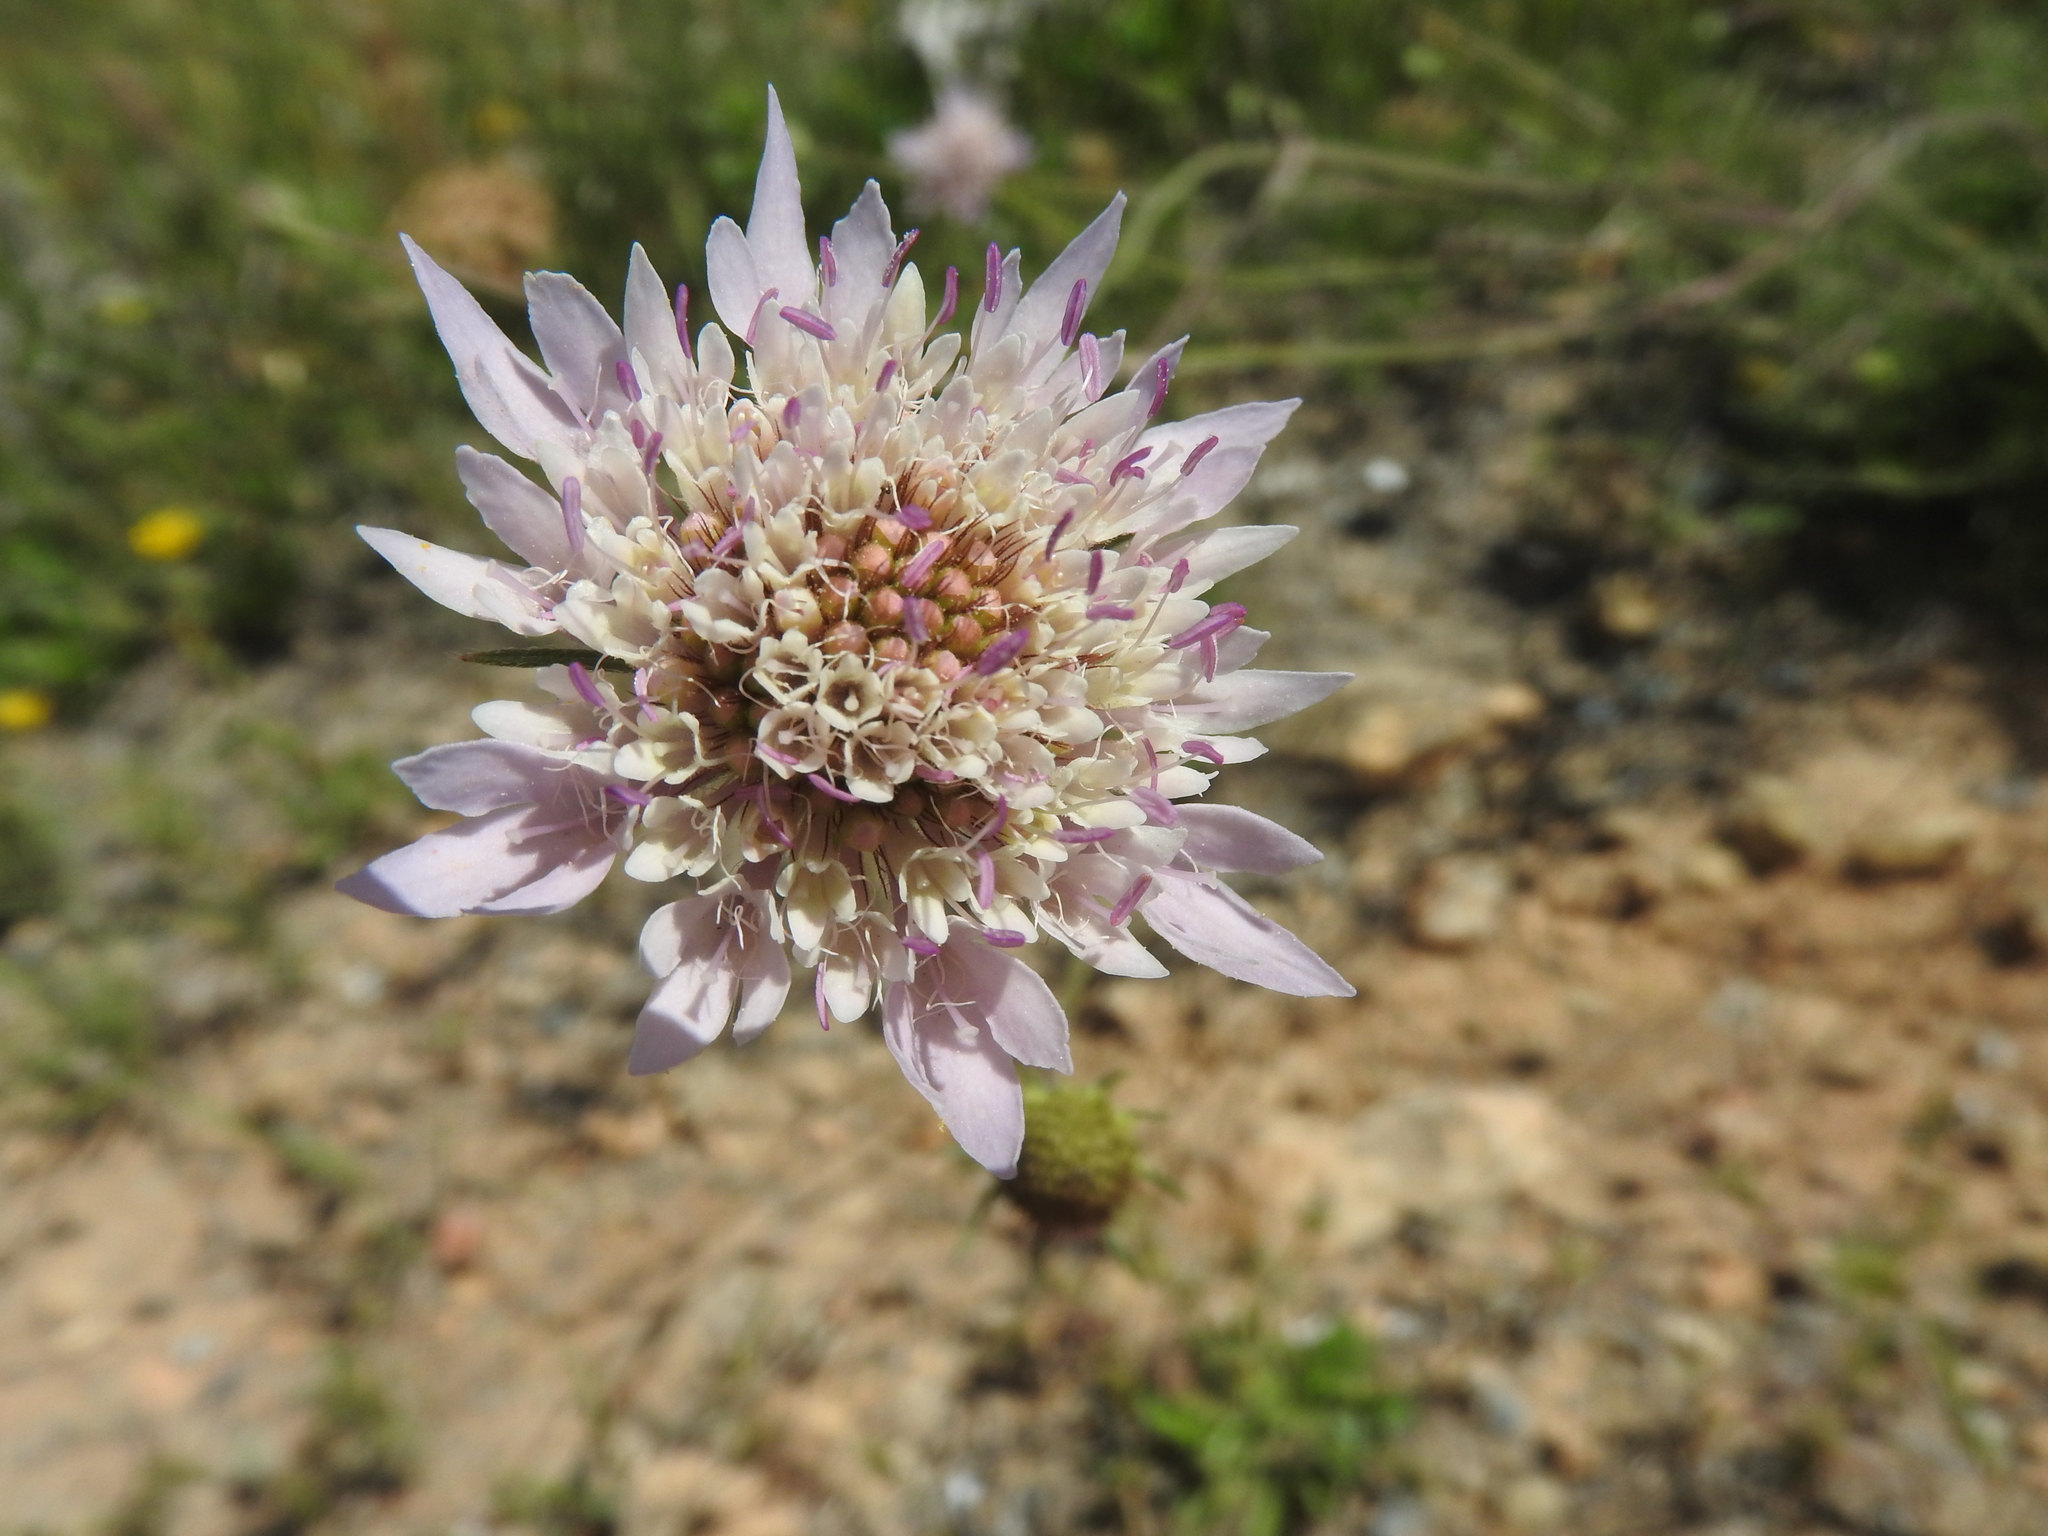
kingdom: Plantae
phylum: Tracheophyta
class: Magnoliopsida
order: Dipsacales
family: Caprifoliaceae
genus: Sixalix
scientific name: Sixalix maritima
